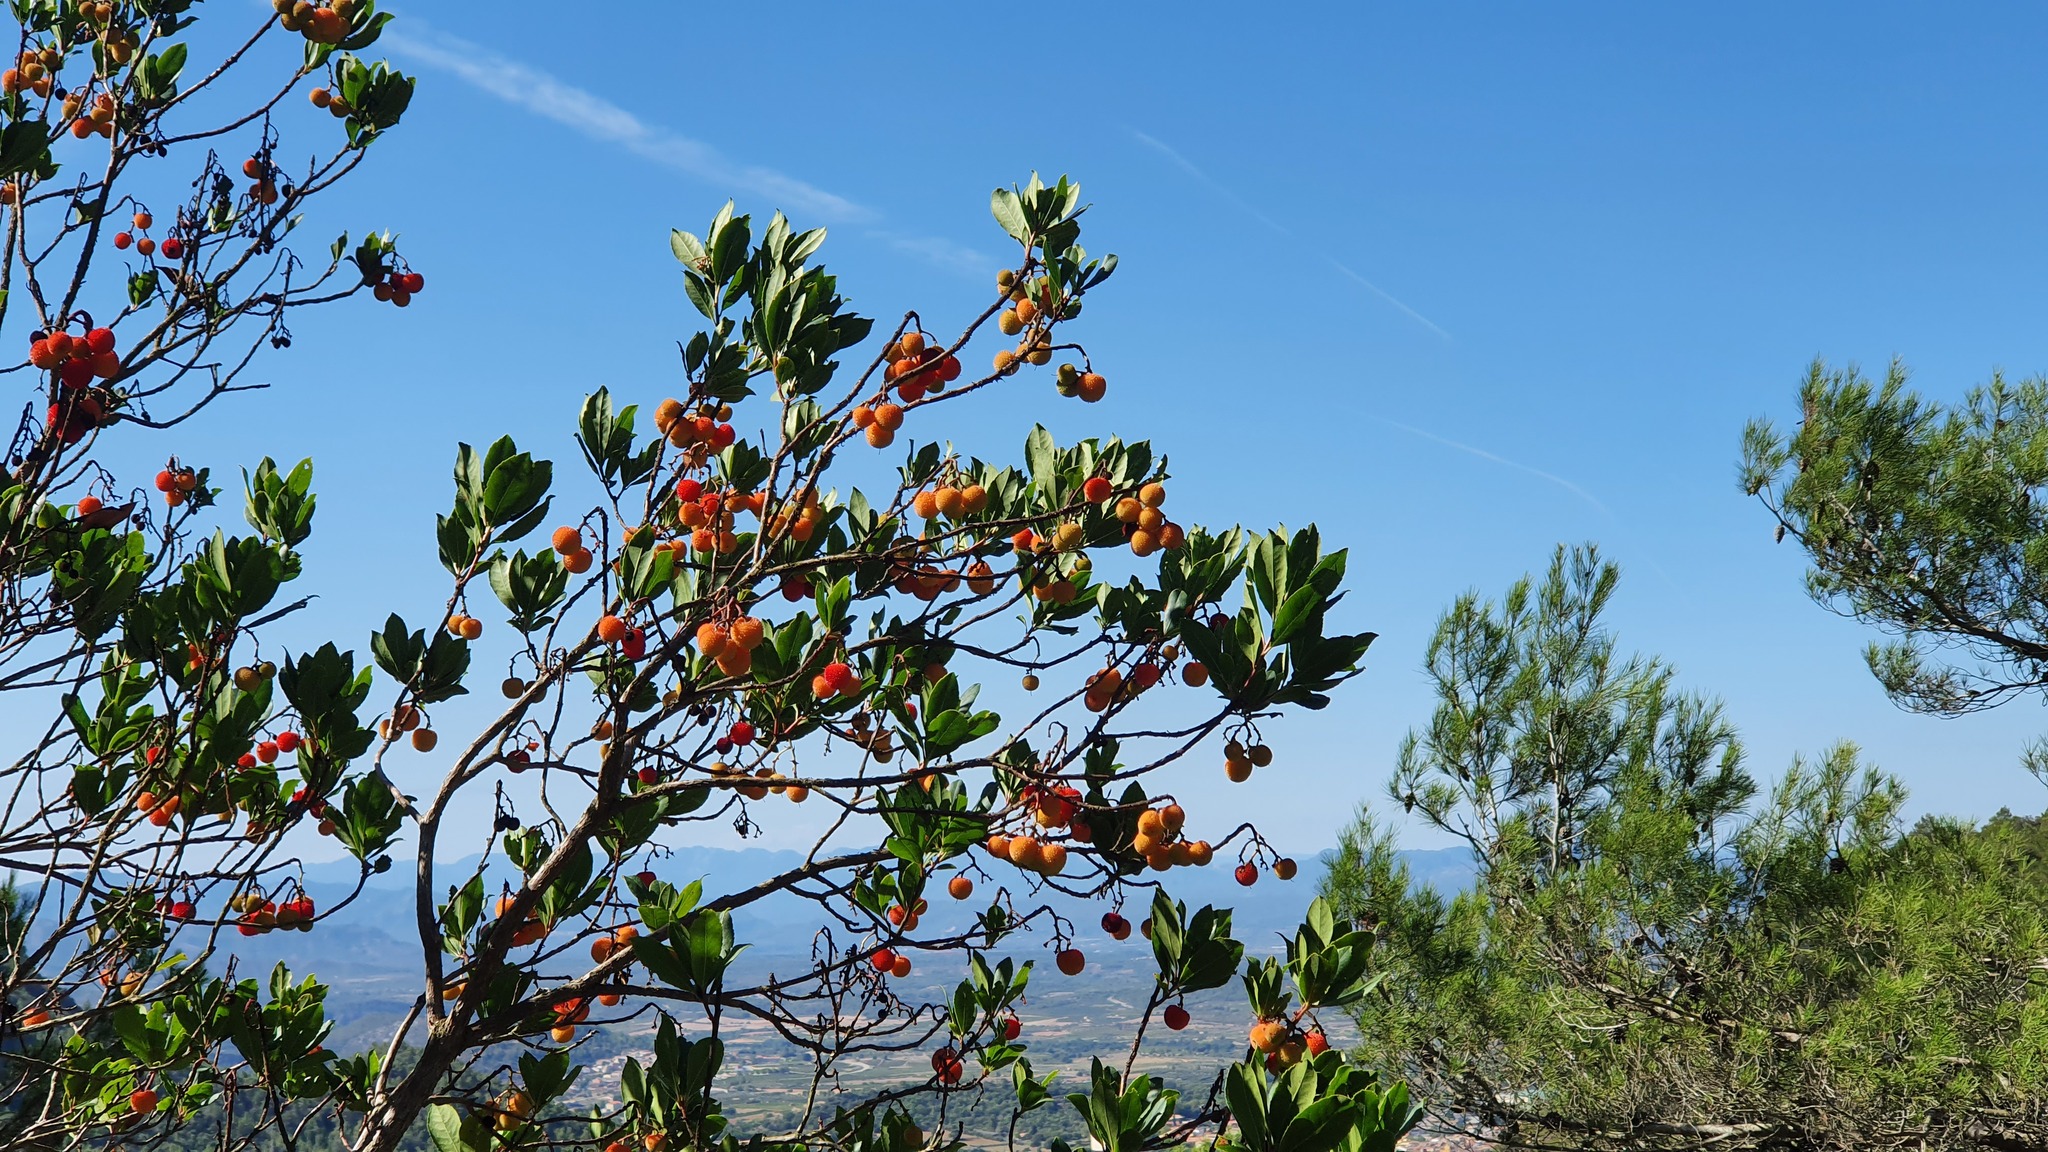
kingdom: Plantae
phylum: Tracheophyta
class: Magnoliopsida
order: Ericales
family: Ericaceae
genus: Arbutus
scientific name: Arbutus unedo
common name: Strawberry-tree
